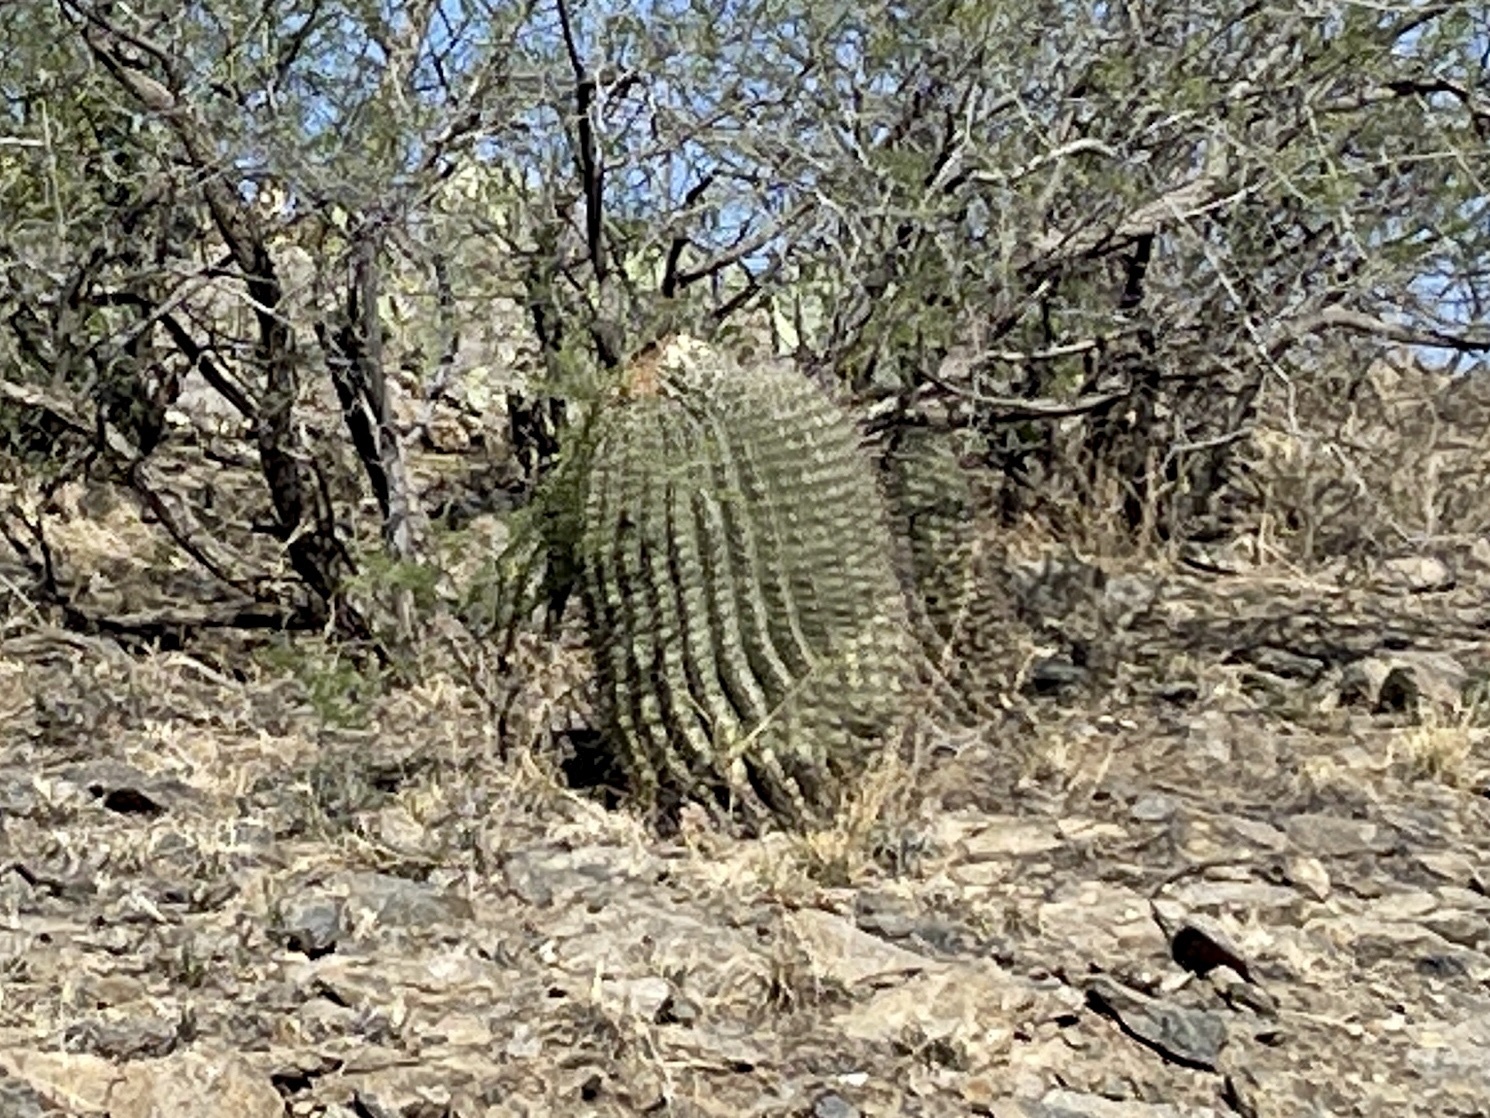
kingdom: Plantae
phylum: Tracheophyta
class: Magnoliopsida
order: Caryophyllales
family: Cactaceae
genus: Ferocactus
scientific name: Ferocactus wislizeni
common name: Candy barrel cactus
